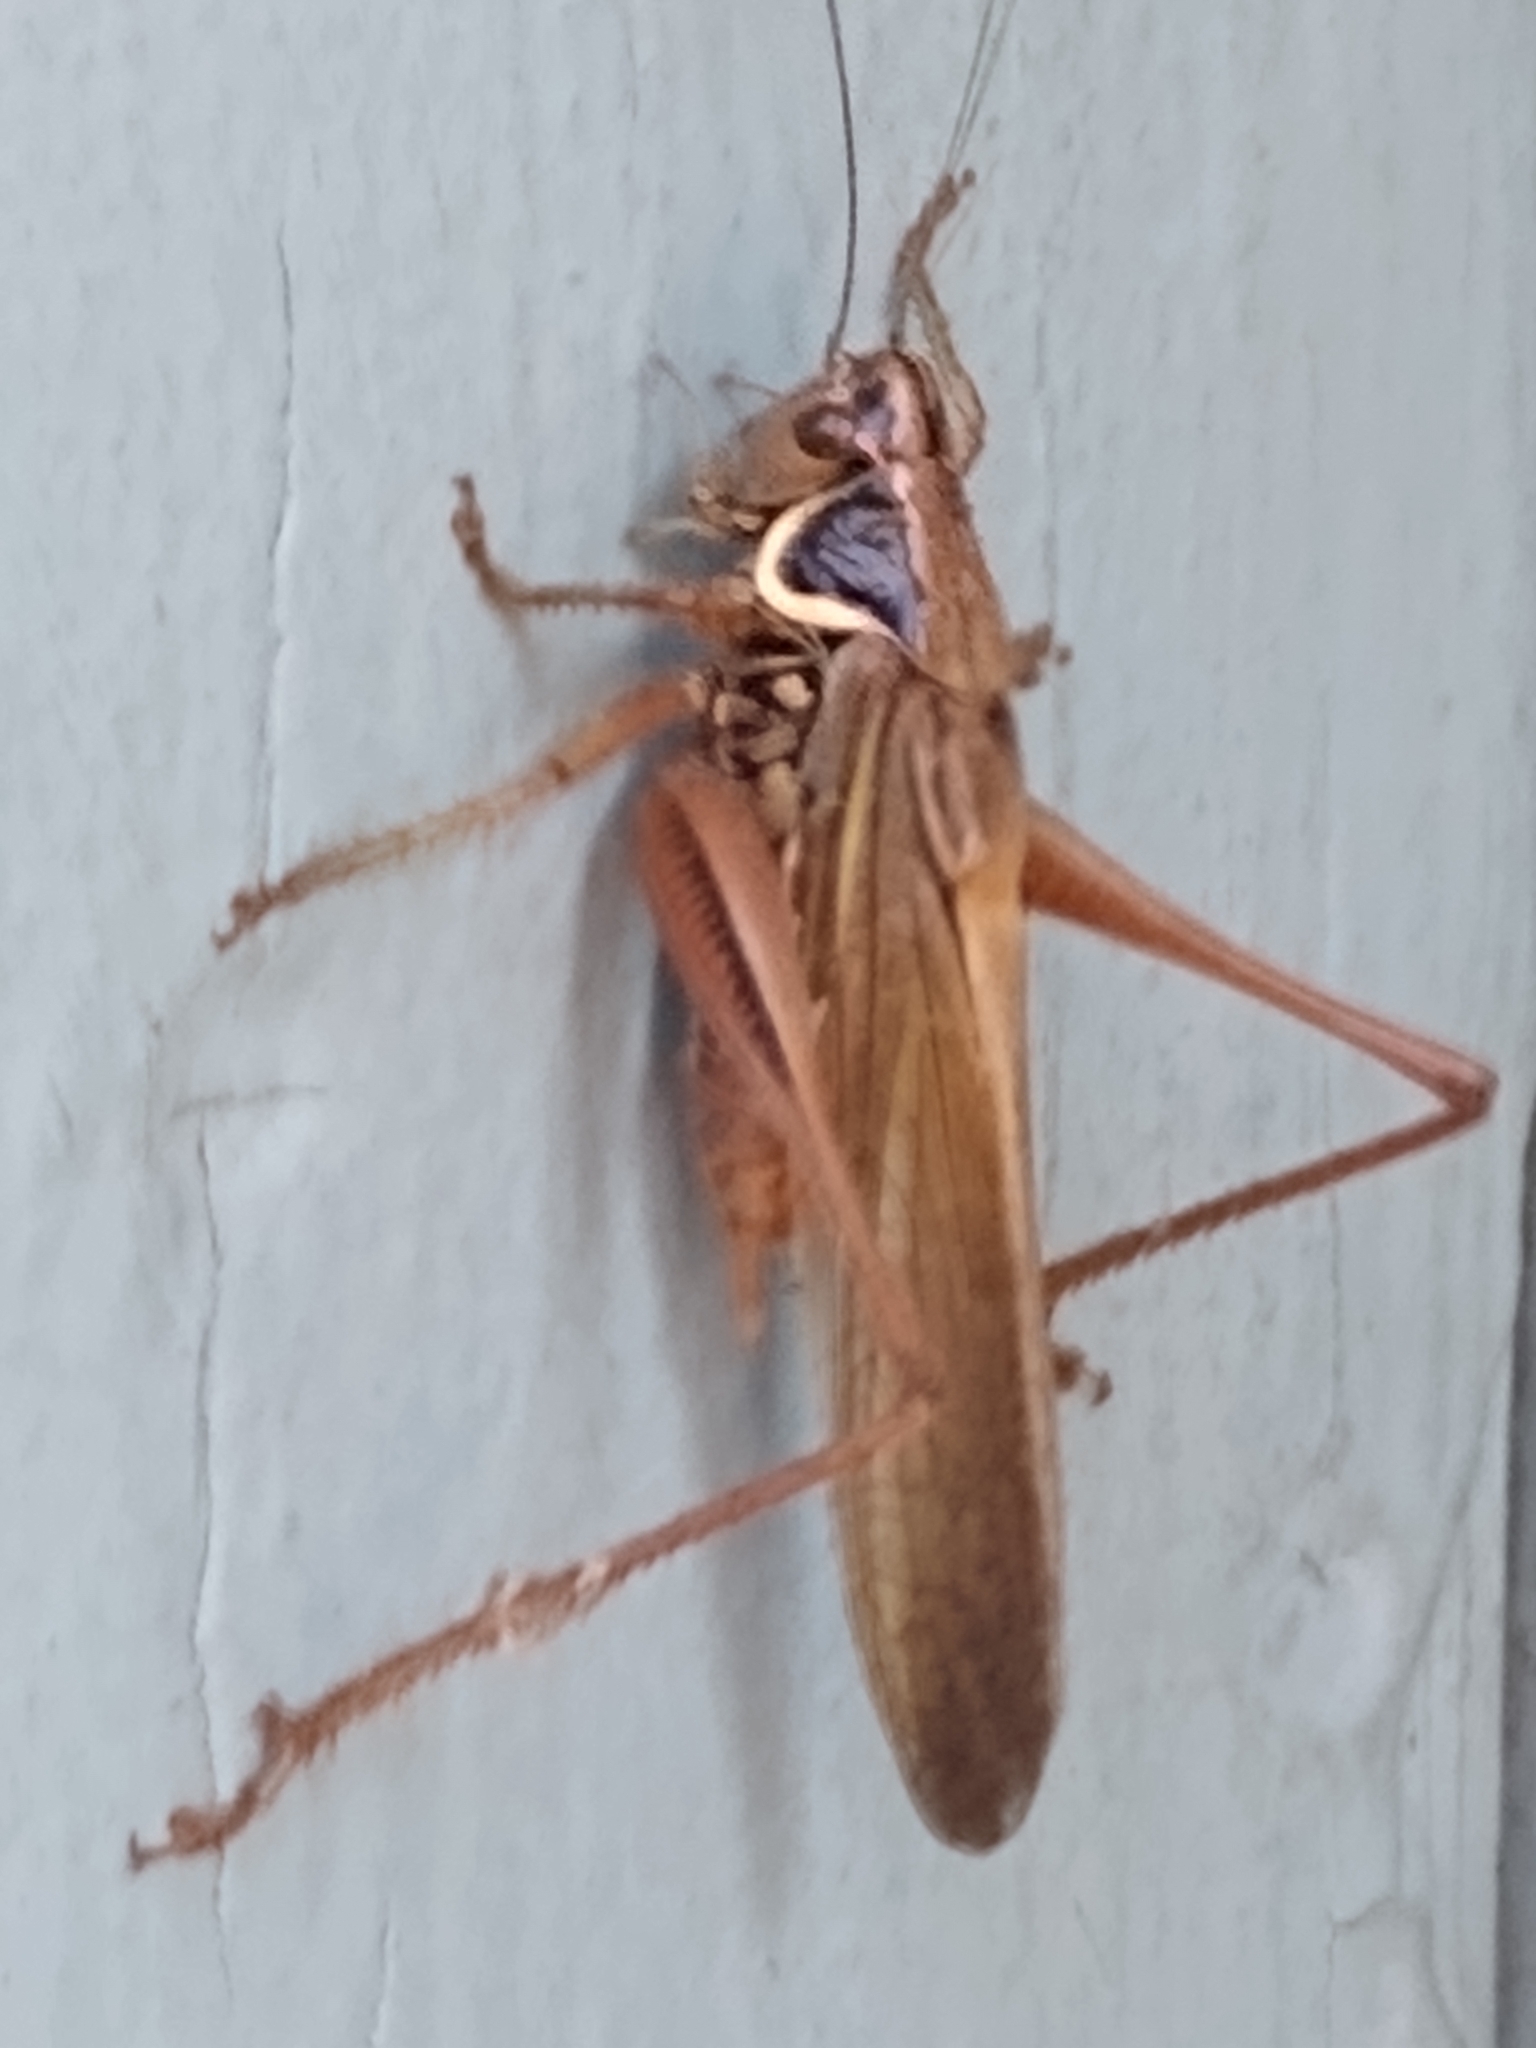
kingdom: Animalia
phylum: Arthropoda
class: Insecta
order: Orthoptera
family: Tettigoniidae
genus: Roeseliana
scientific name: Roeseliana roeselii
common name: Roesel's bush cricket
